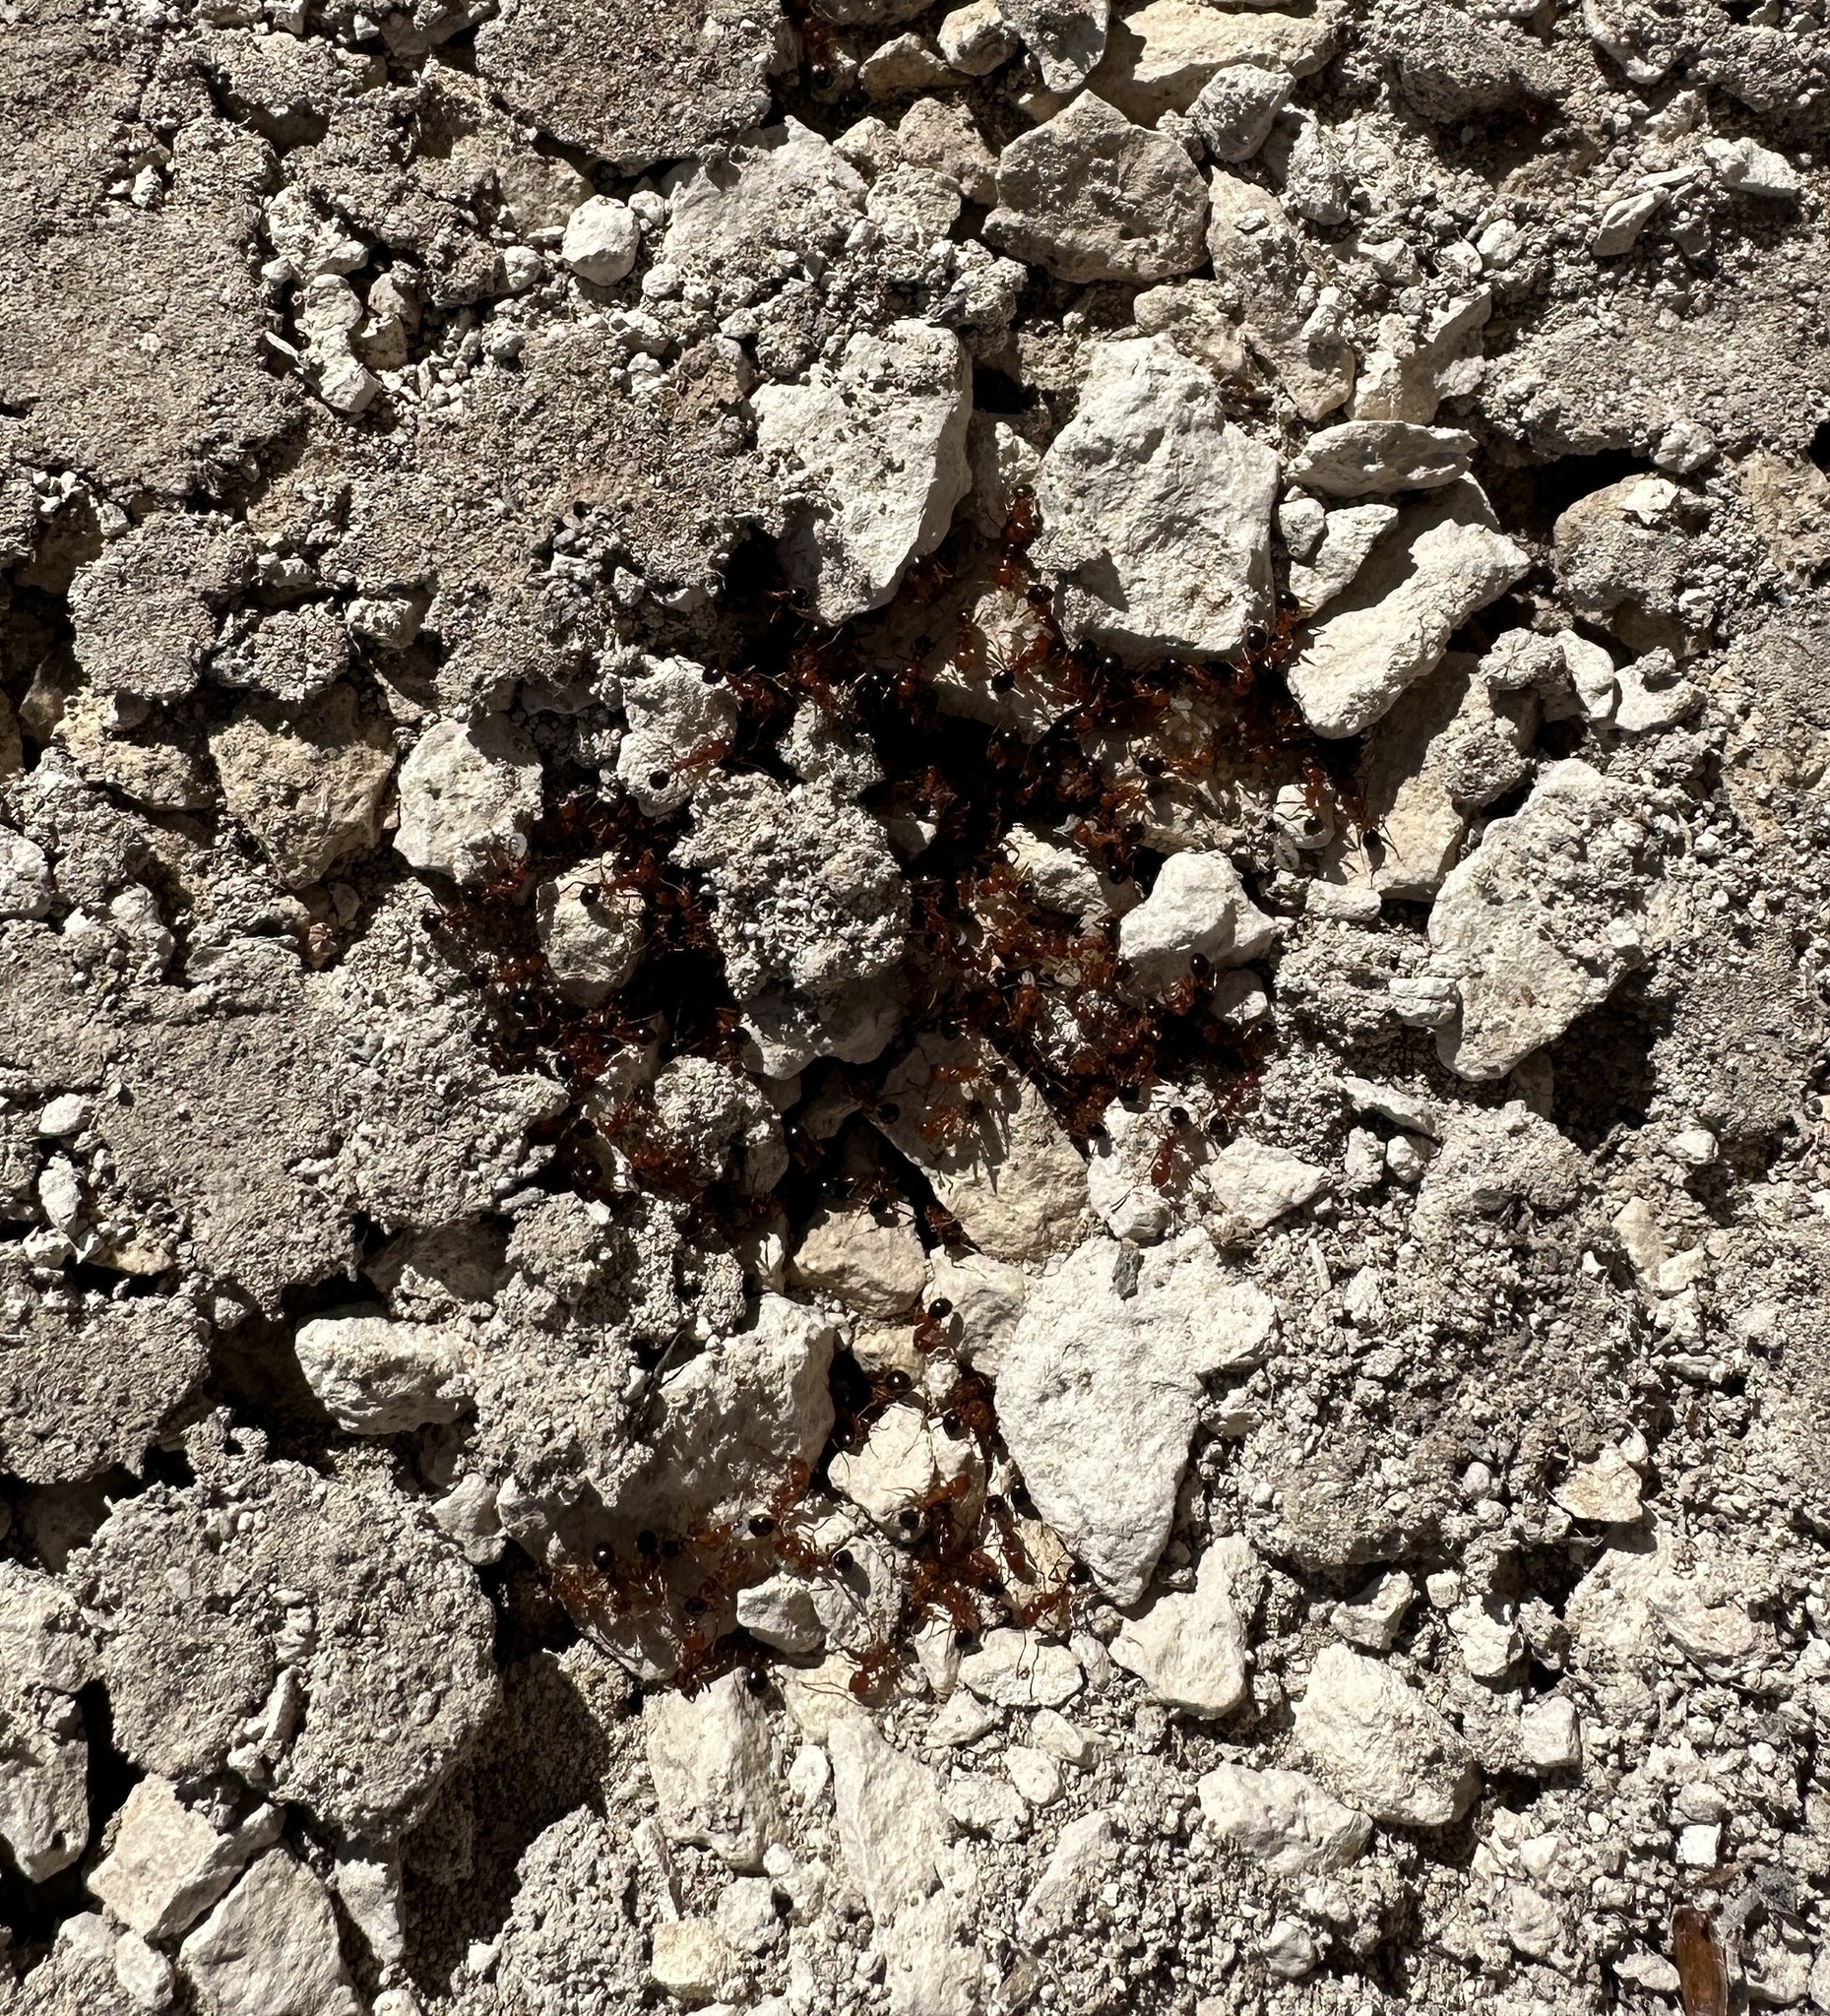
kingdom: Animalia
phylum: Arthropoda
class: Insecta
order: Hymenoptera
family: Formicidae
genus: Aphaenogaster
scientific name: Aphaenogaster uinta
